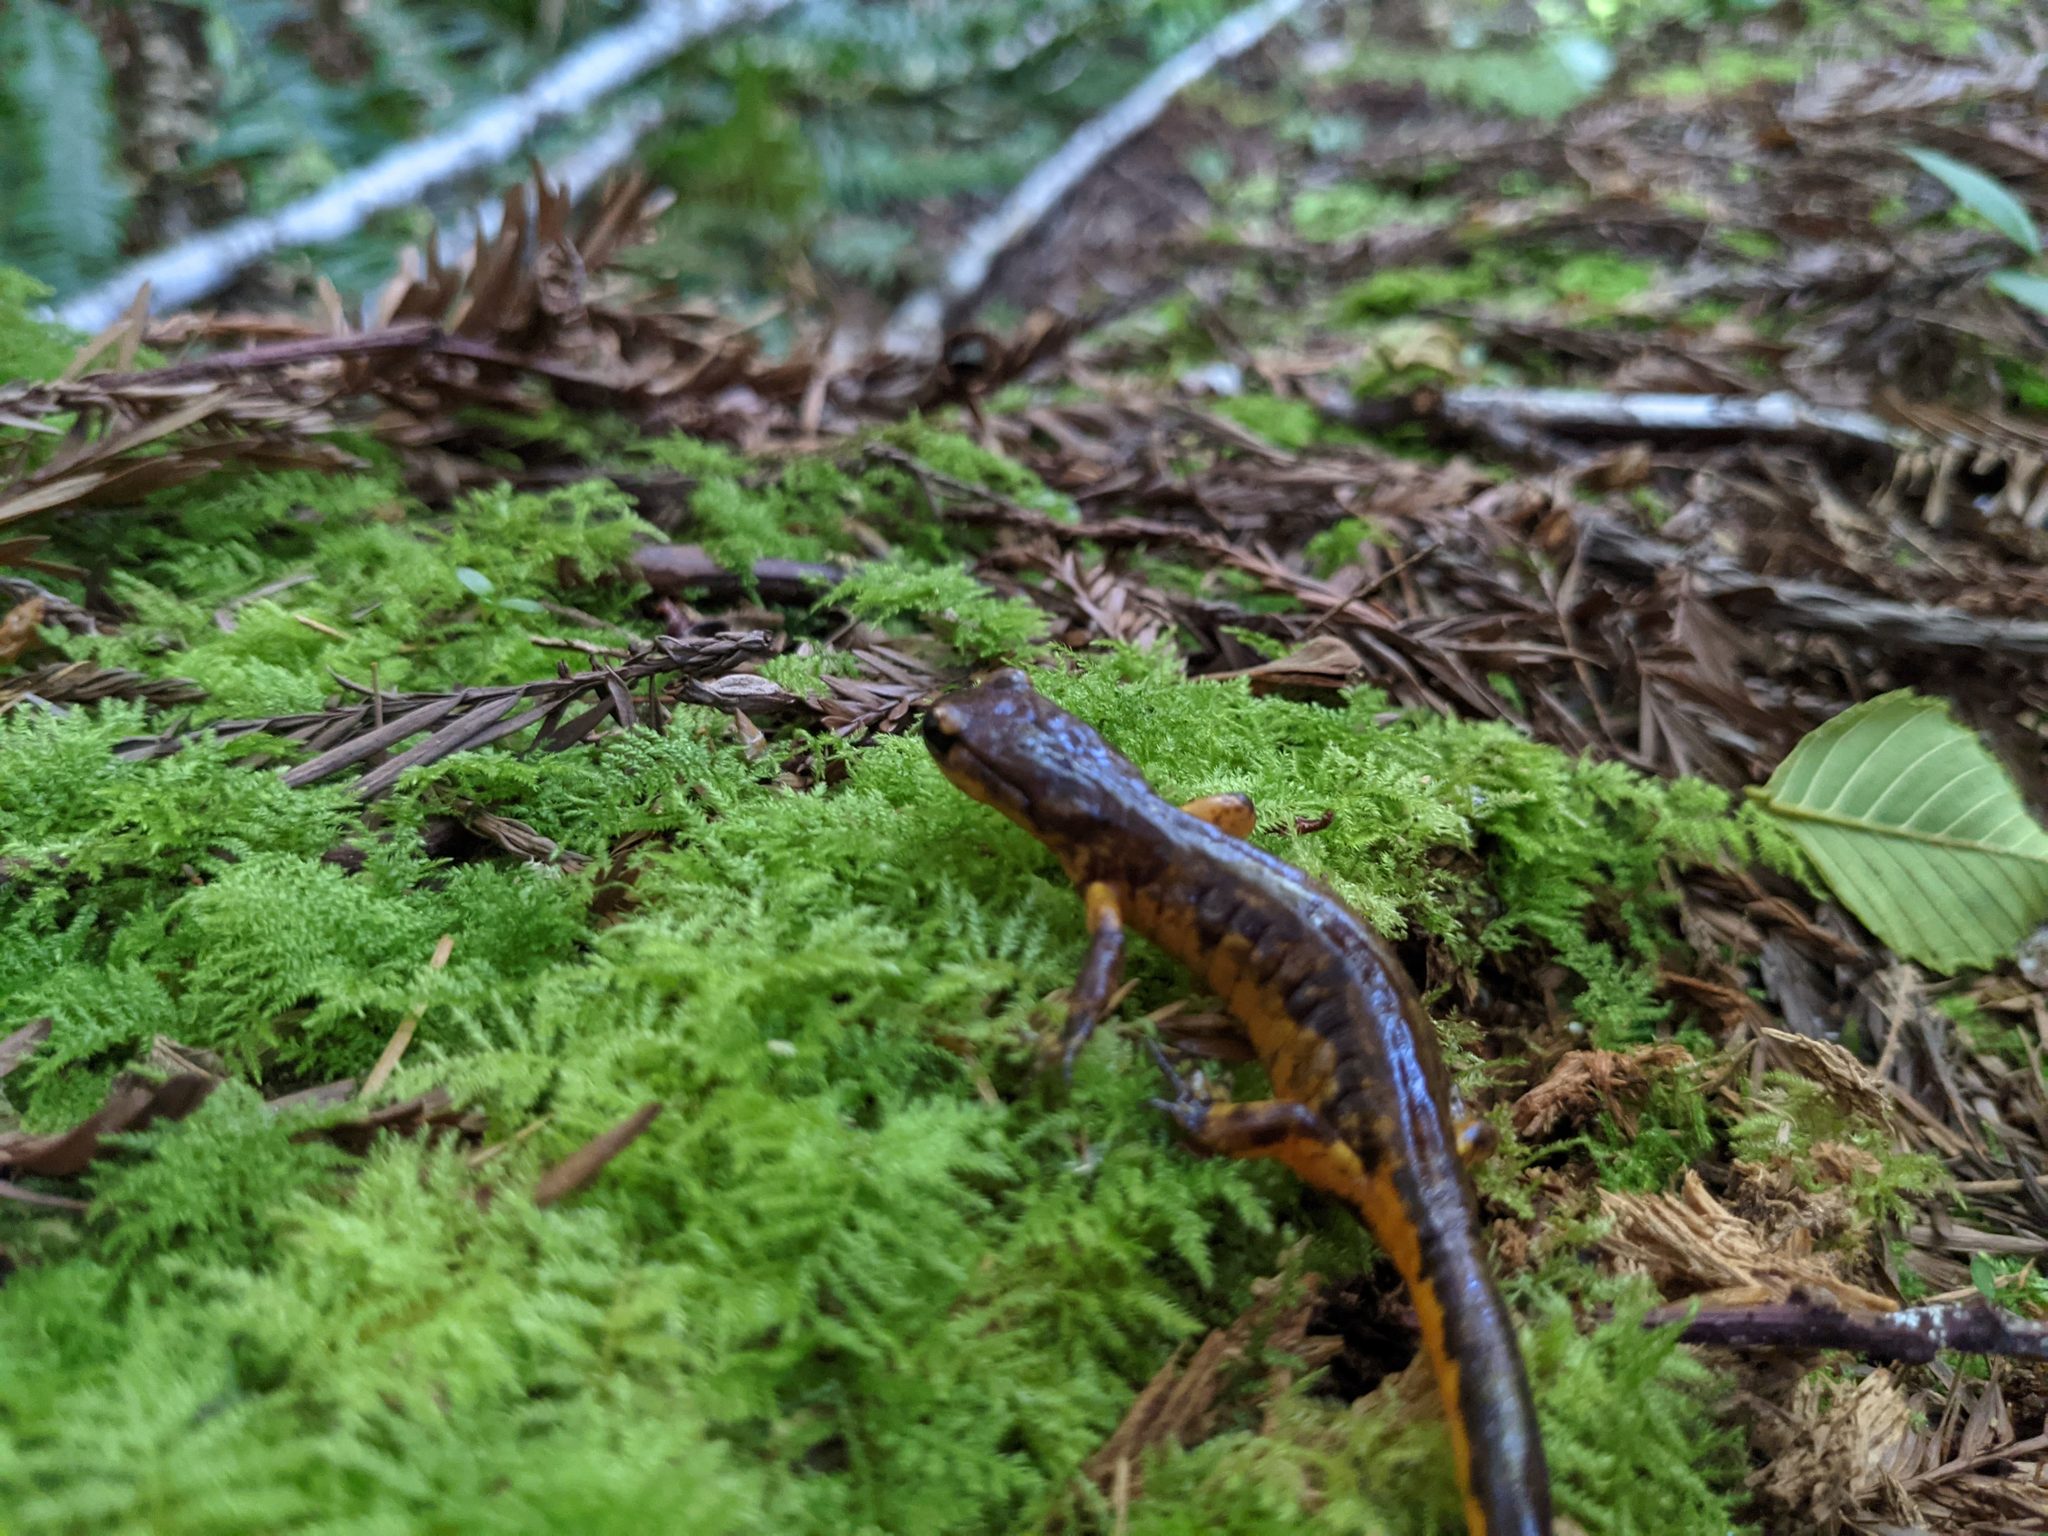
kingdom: Animalia
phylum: Chordata
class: Amphibia
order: Caudata
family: Plethodontidae
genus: Ensatina
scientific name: Ensatina eschscholtzii
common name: Ensatina
